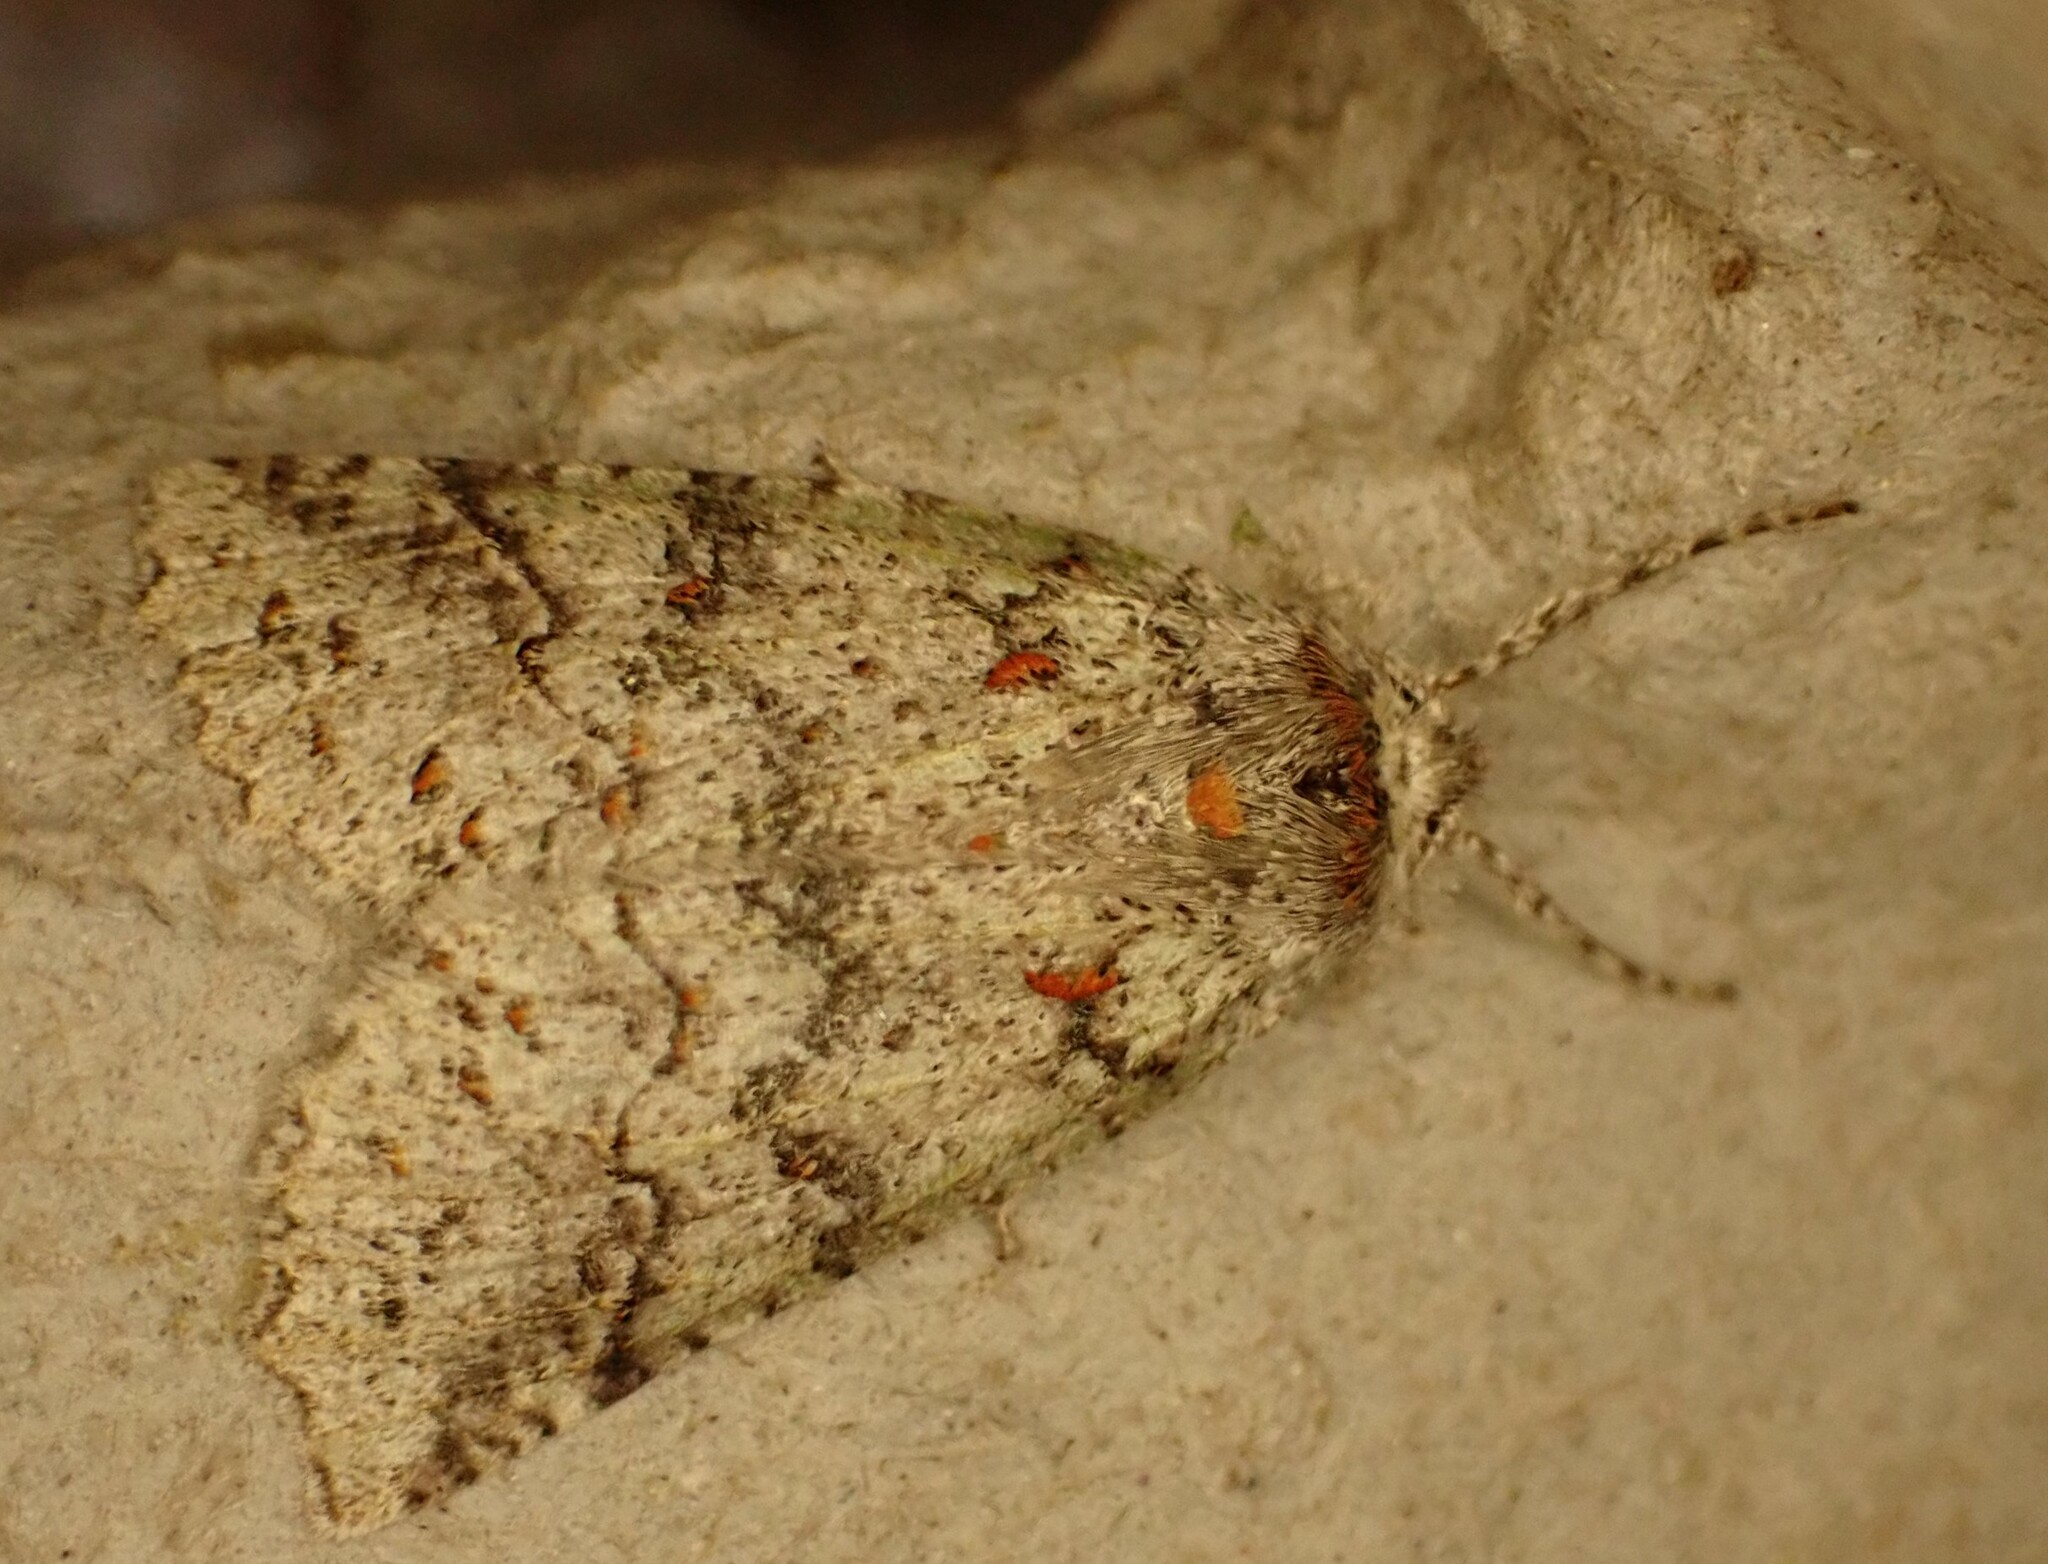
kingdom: Animalia
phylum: Arthropoda
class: Insecta
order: Lepidoptera
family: Geometridae
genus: Declana
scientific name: Declana floccosa
